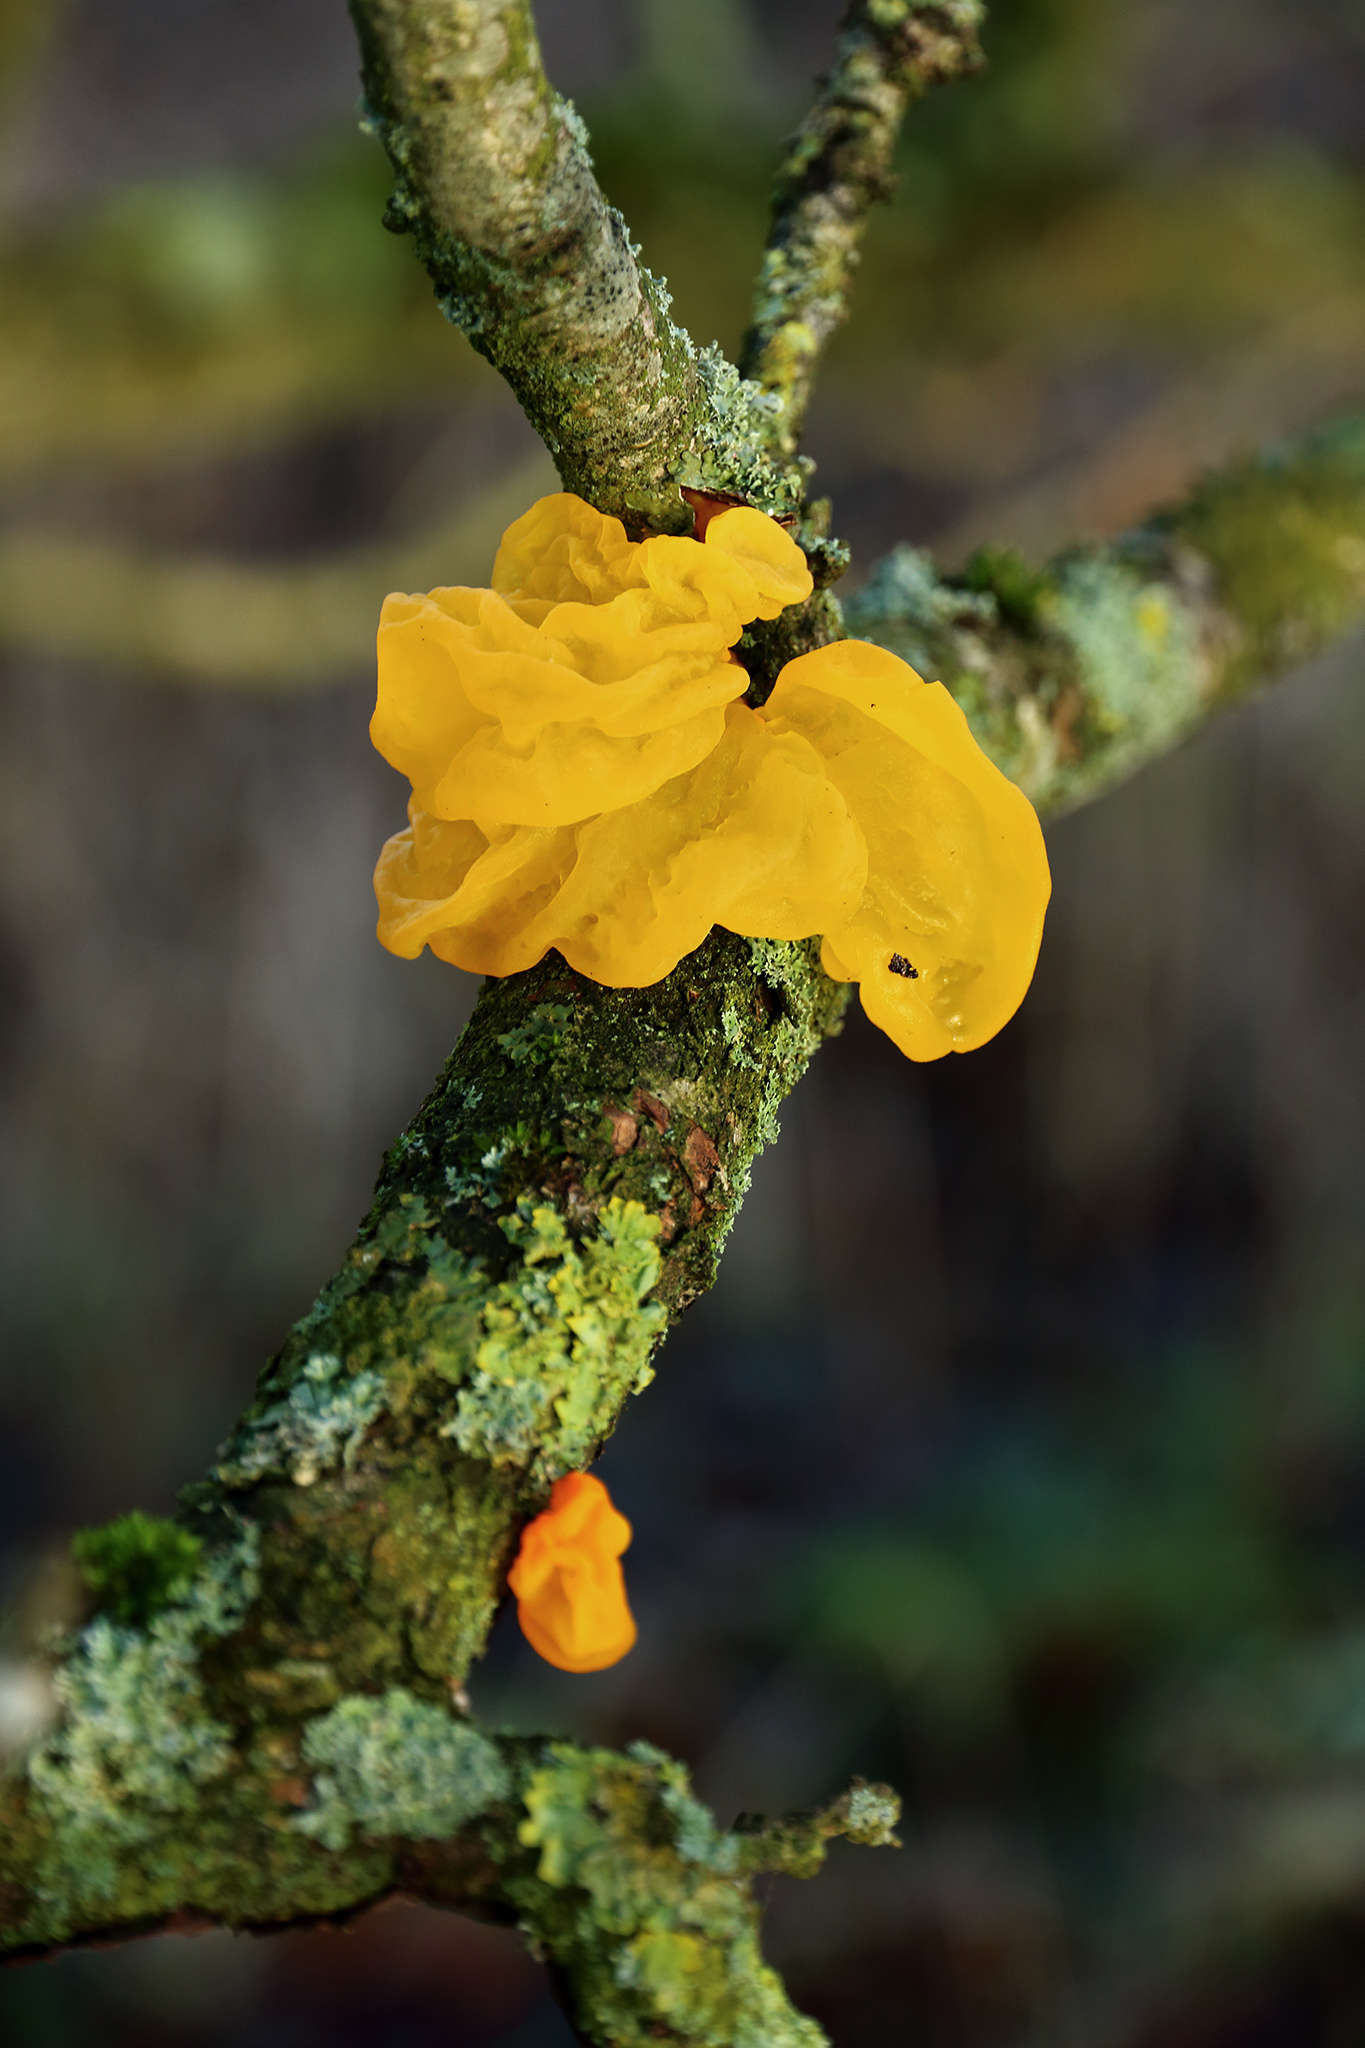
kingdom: Fungi
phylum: Basidiomycota
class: Tremellomycetes
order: Tremellales
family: Tremellaceae
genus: Tremella
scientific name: Tremella mesenterica
